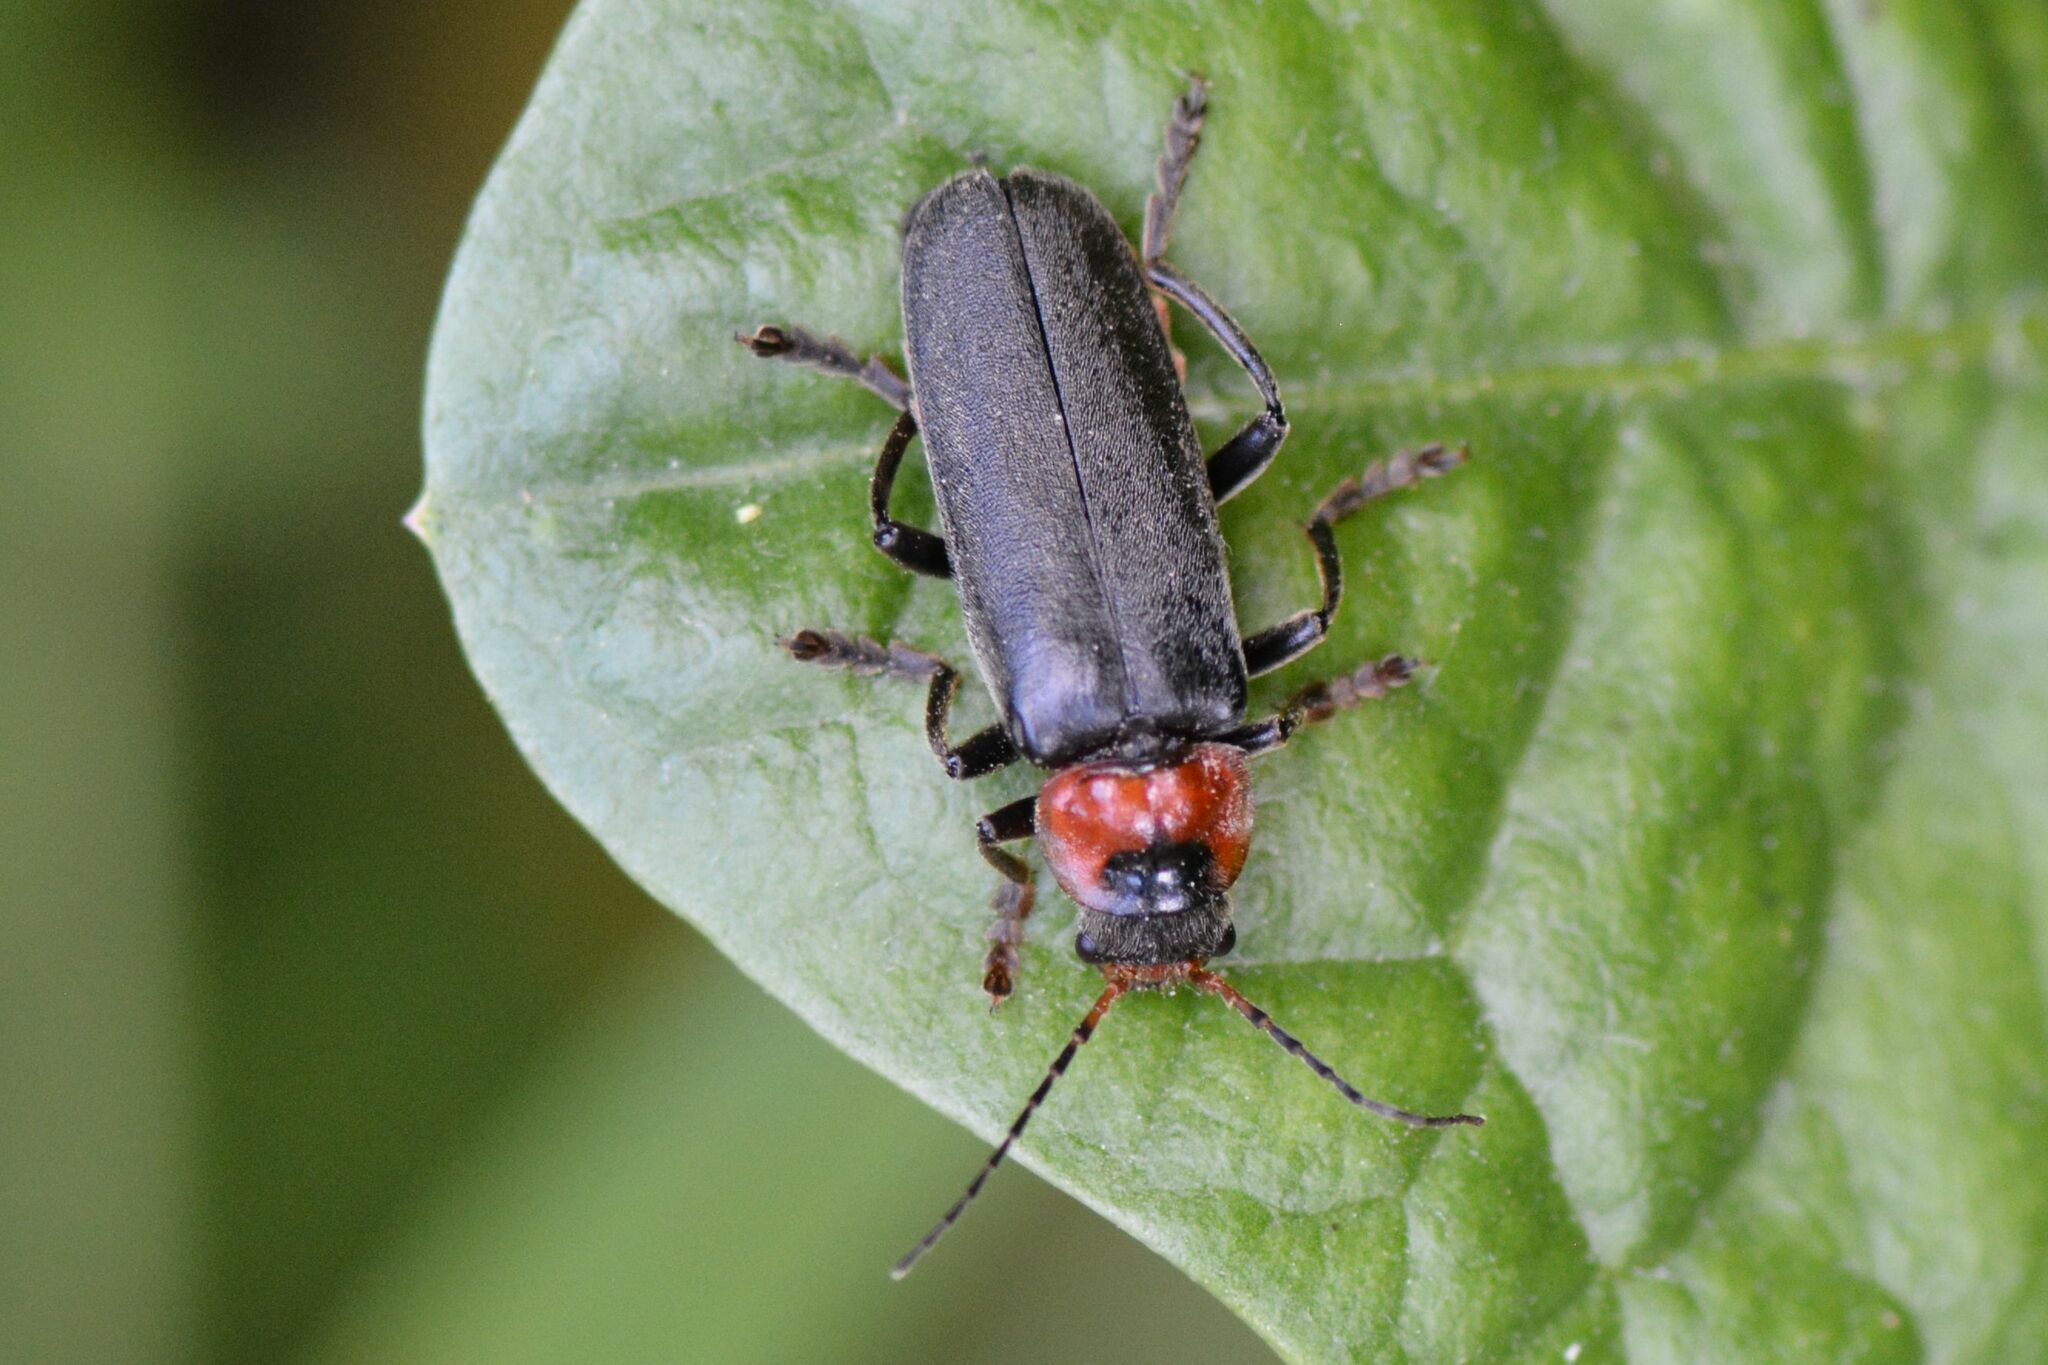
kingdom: Animalia
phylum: Arthropoda
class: Insecta
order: Coleoptera
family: Cantharidae
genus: Cantharis
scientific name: Cantharis fusca
